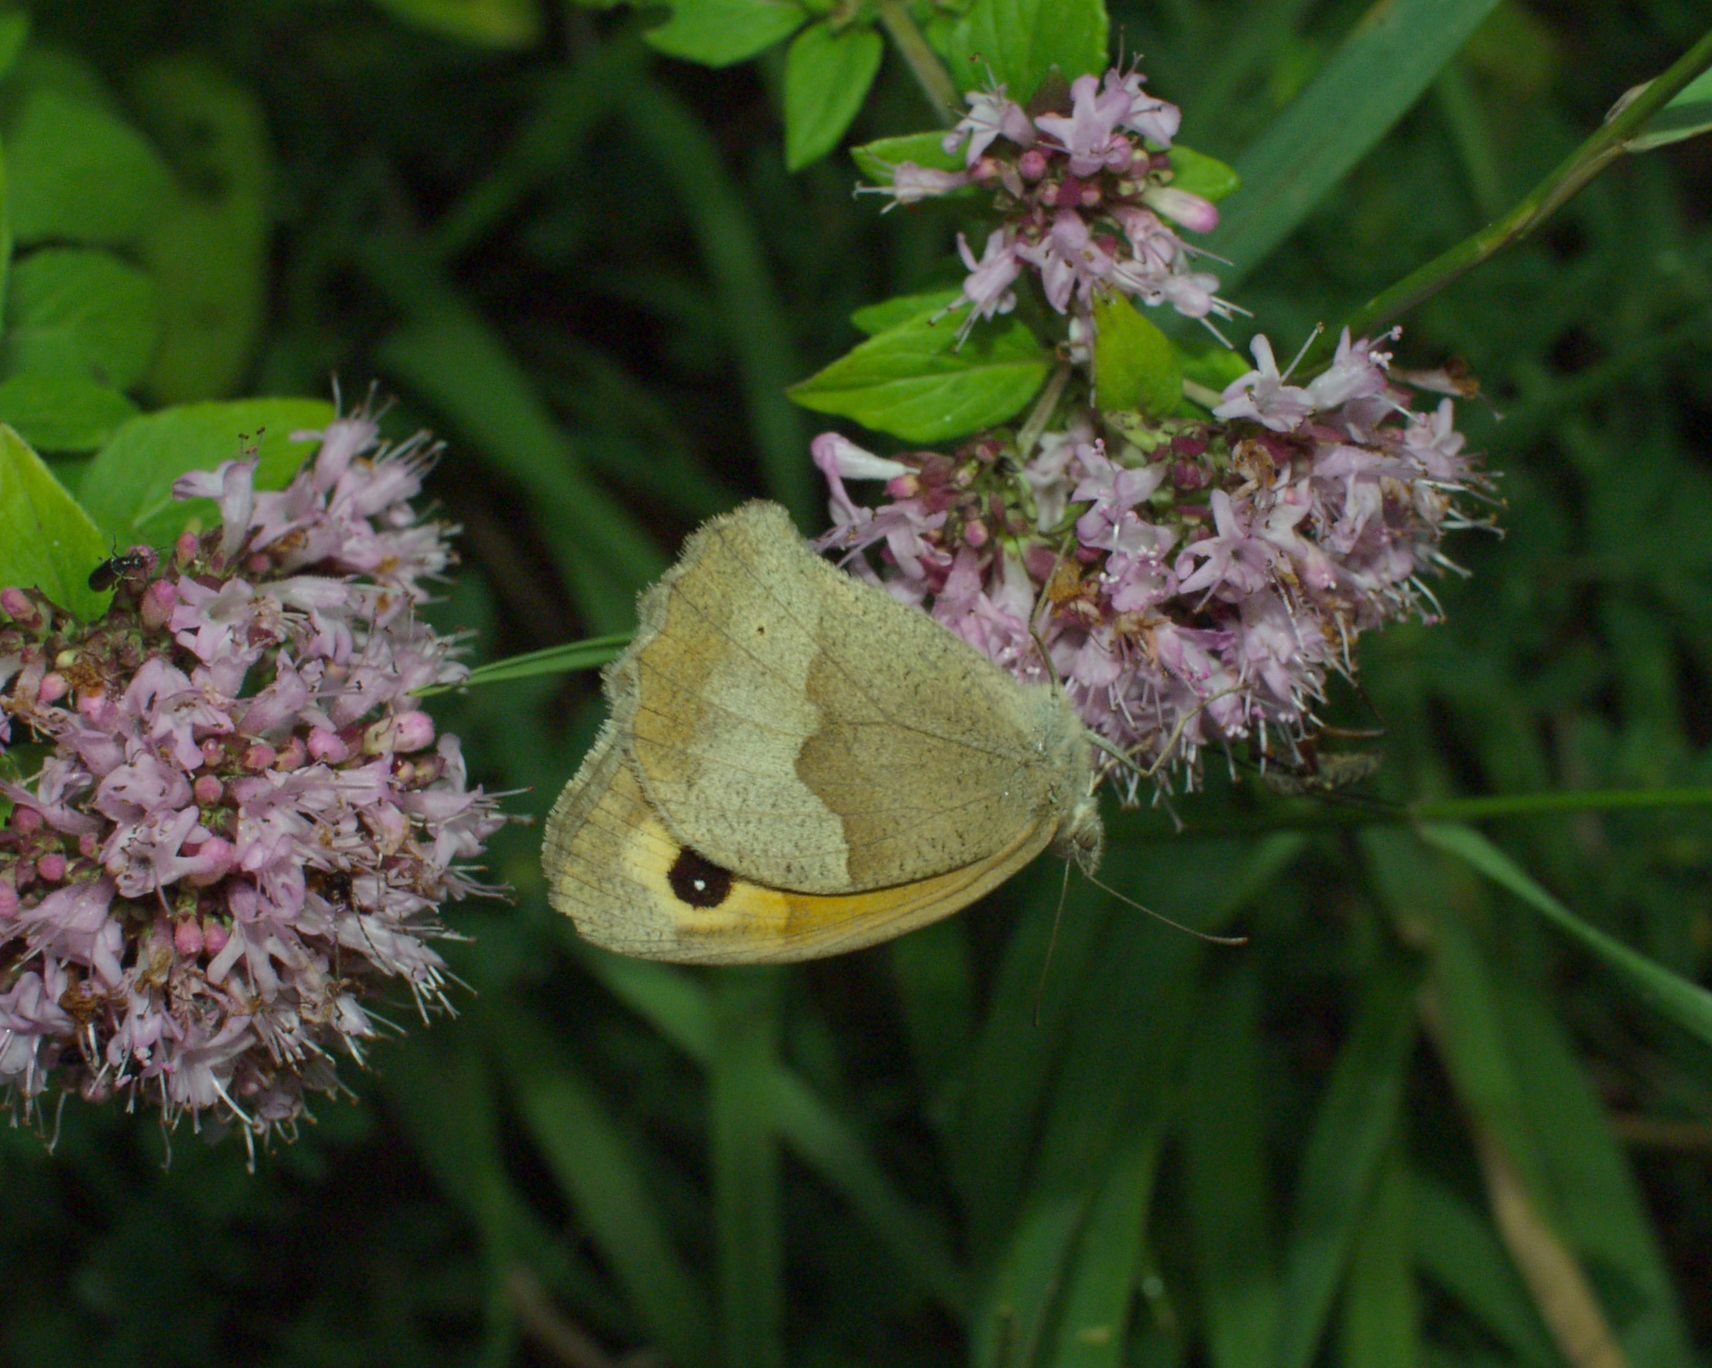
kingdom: Animalia
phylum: Arthropoda
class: Insecta
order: Lepidoptera
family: Nymphalidae
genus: Maniola
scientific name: Maniola jurtina
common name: Meadow brown
